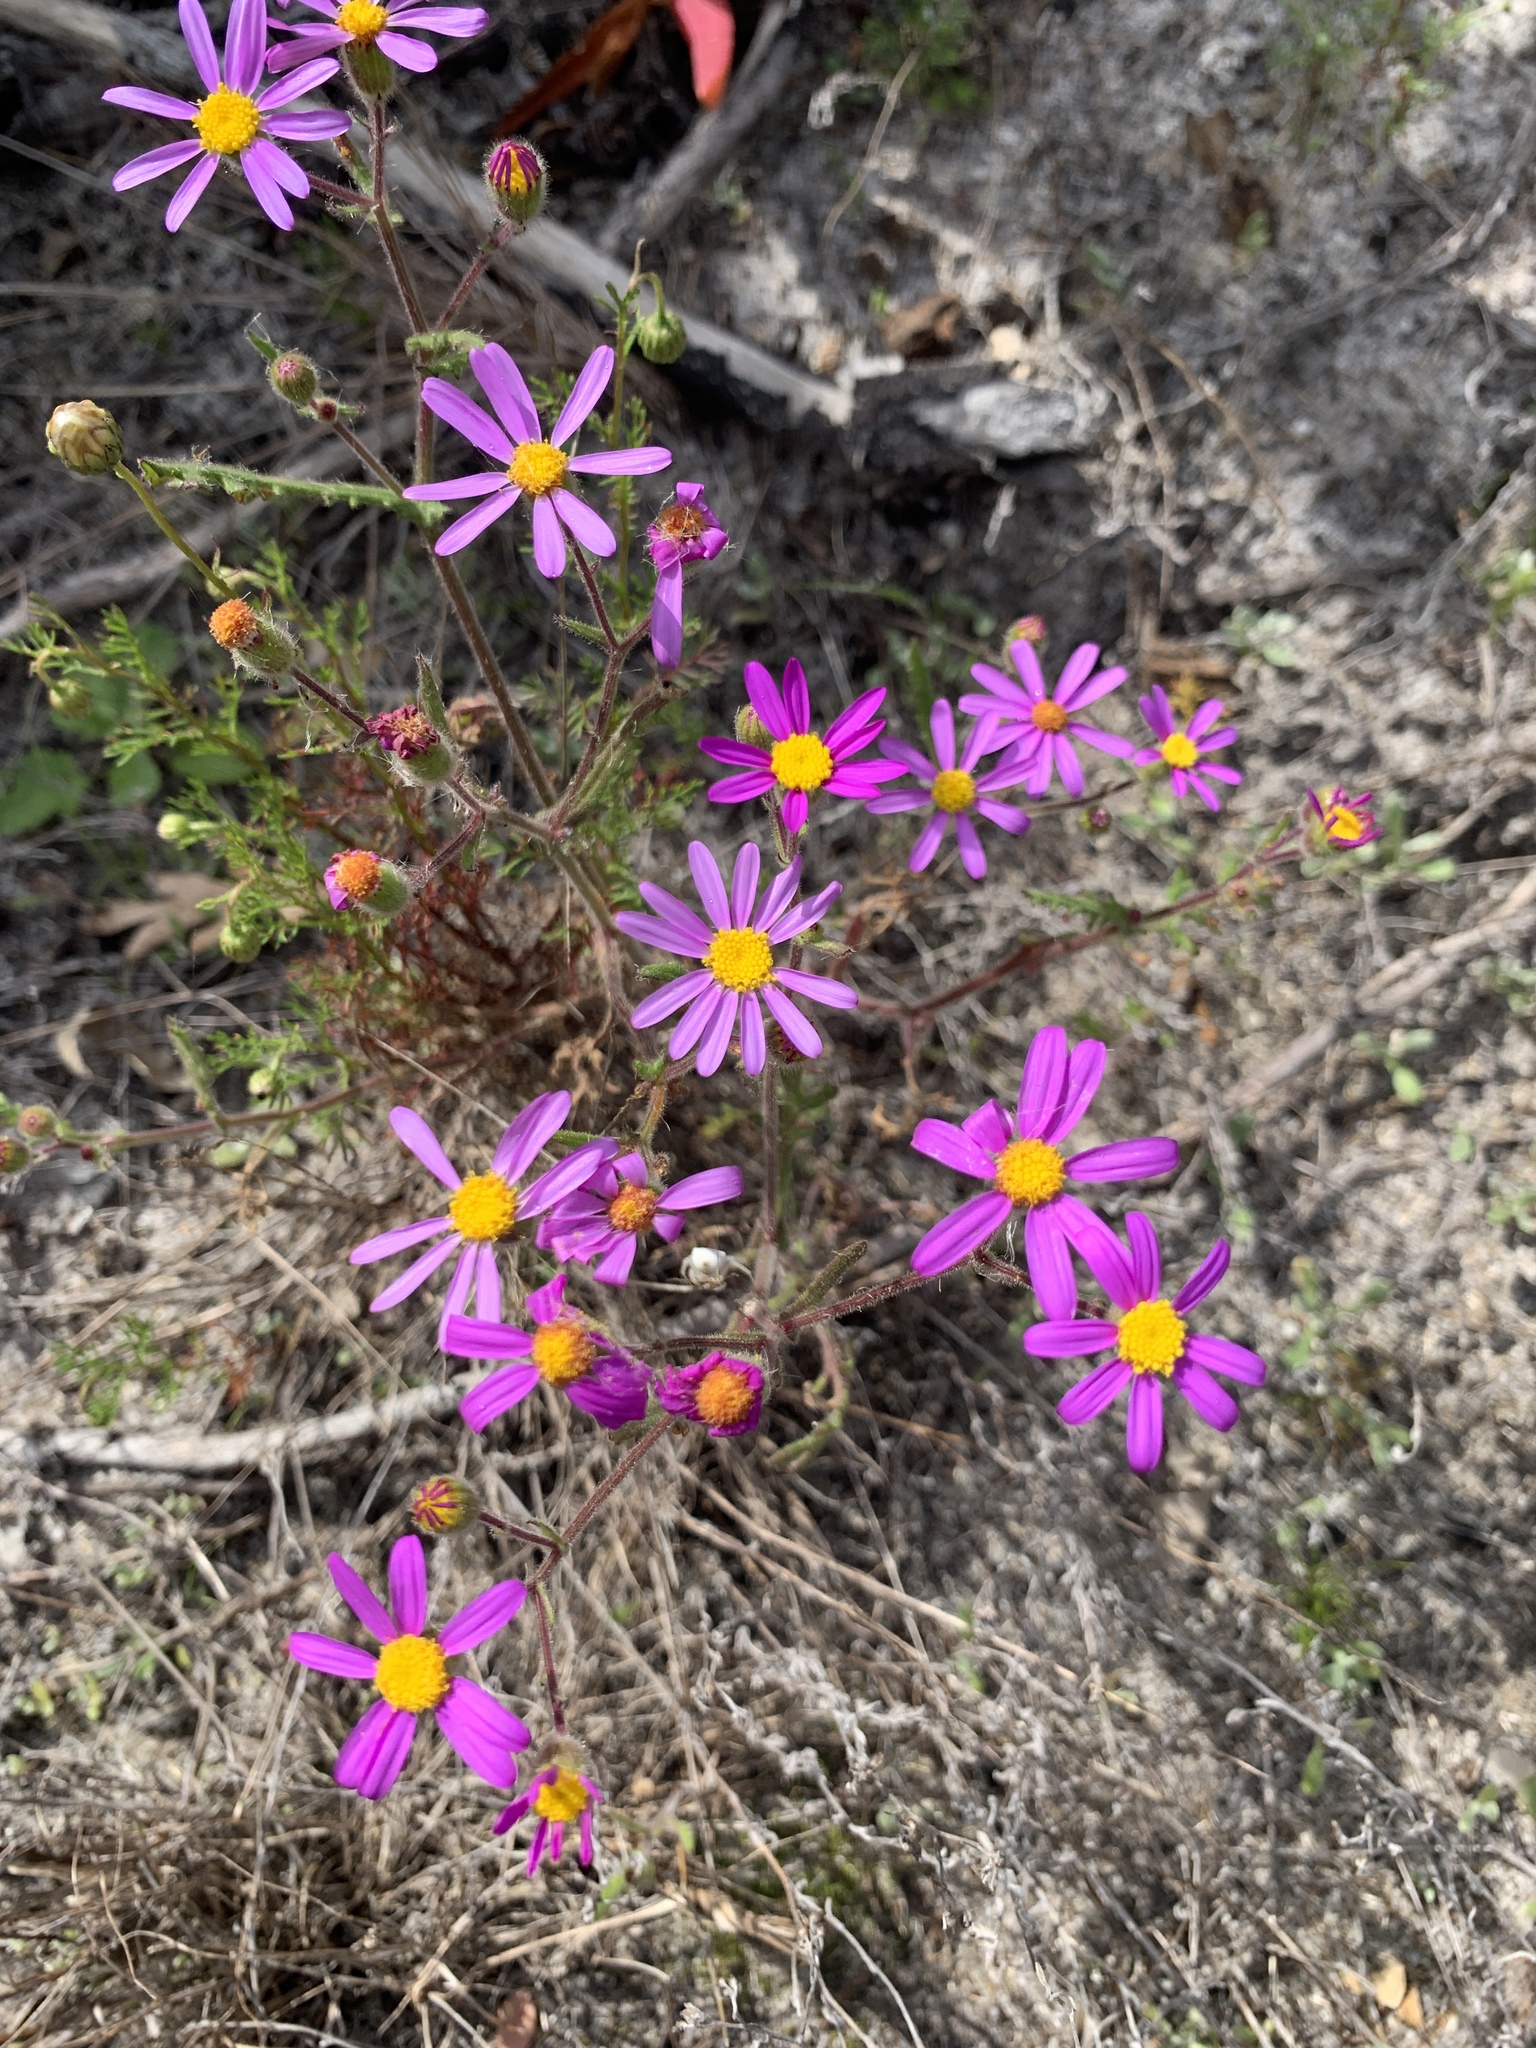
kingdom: Plantae
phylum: Tracheophyta
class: Magnoliopsida
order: Asterales
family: Asteraceae
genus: Senecio
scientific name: Senecio arenarius
